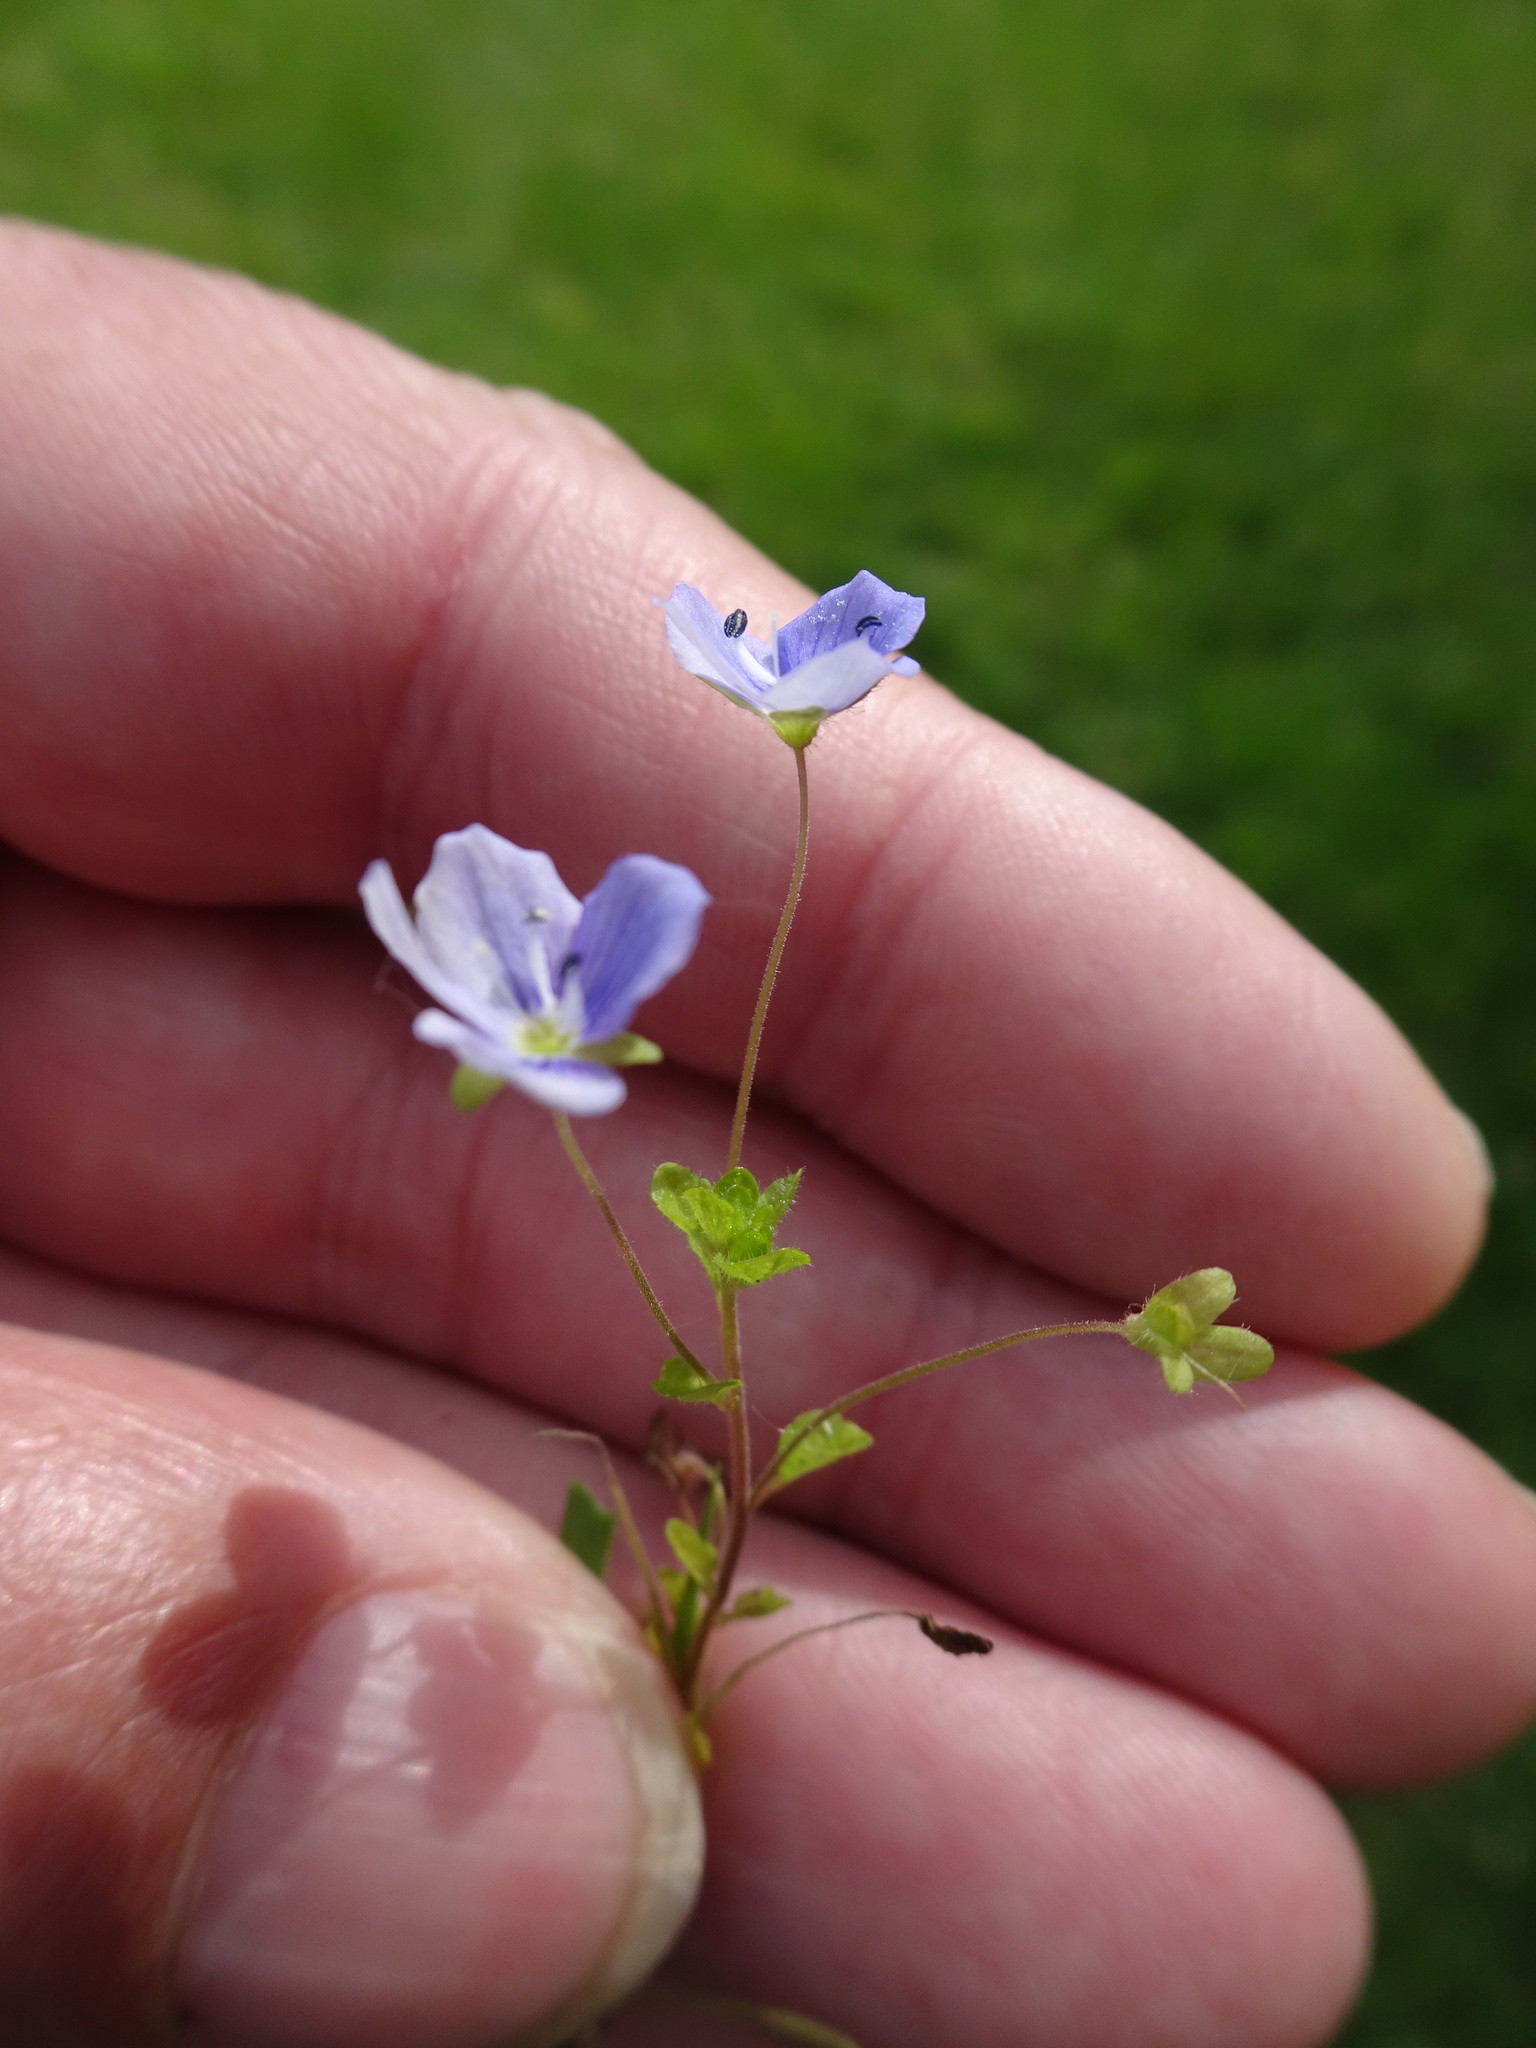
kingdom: Plantae
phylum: Tracheophyta
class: Magnoliopsida
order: Lamiales
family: Plantaginaceae
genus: Veronica
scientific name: Veronica filiformis
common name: Slender speedwell
